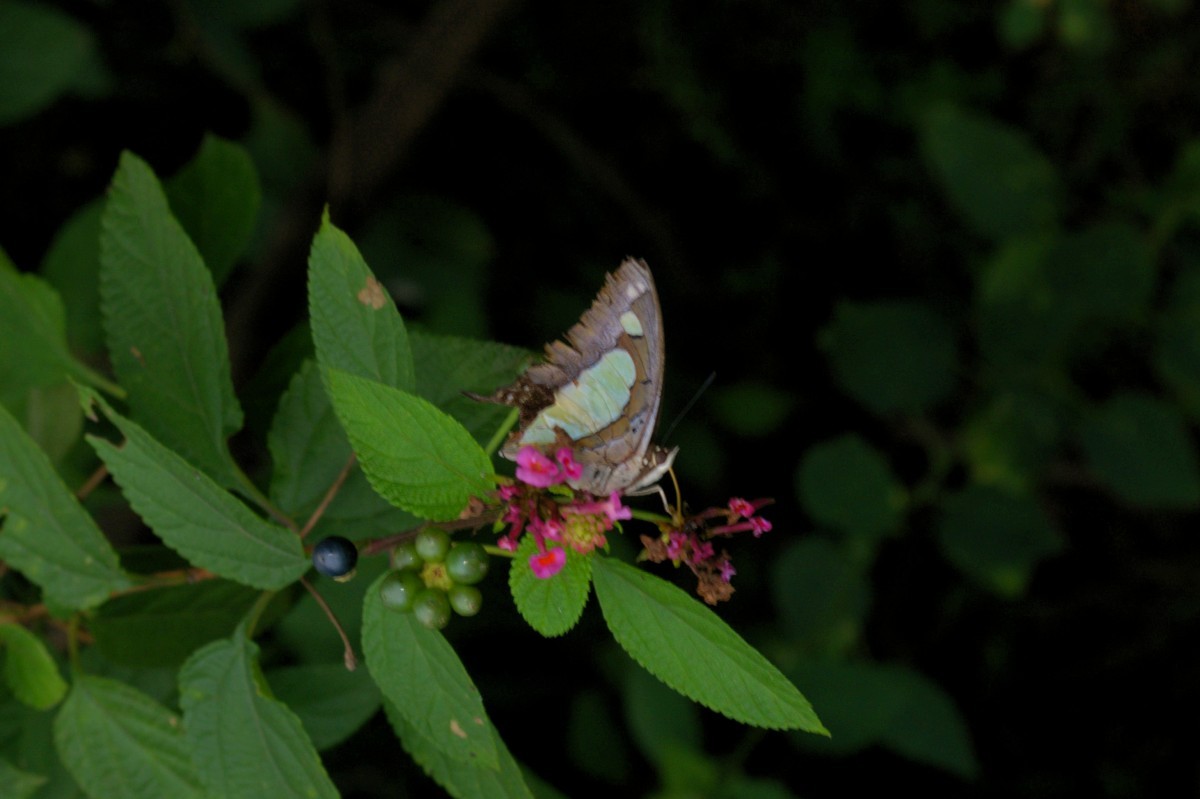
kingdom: Animalia
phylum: Arthropoda
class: Insecta
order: Lepidoptera
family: Nymphalidae
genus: Polyura
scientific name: Polyura agrarius
